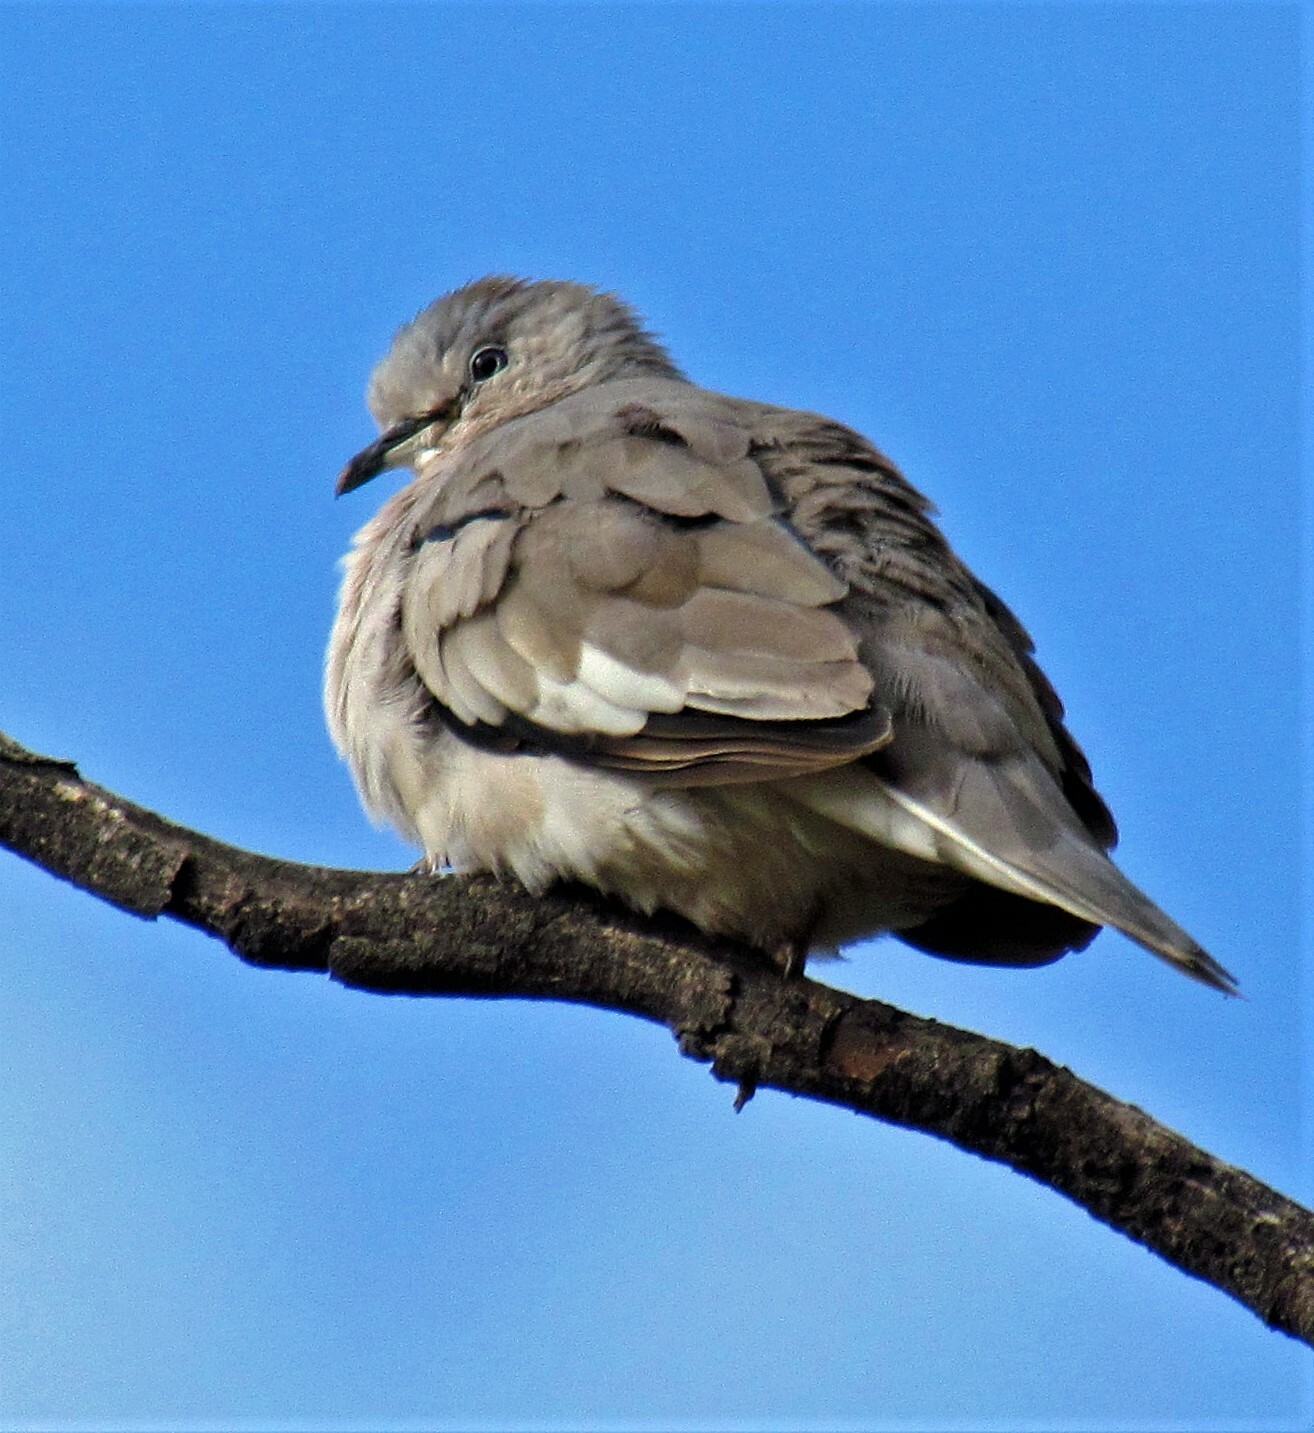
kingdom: Animalia
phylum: Chordata
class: Aves
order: Columbiformes
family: Columbidae
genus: Columbina
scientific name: Columbina picui
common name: Picui ground dove
